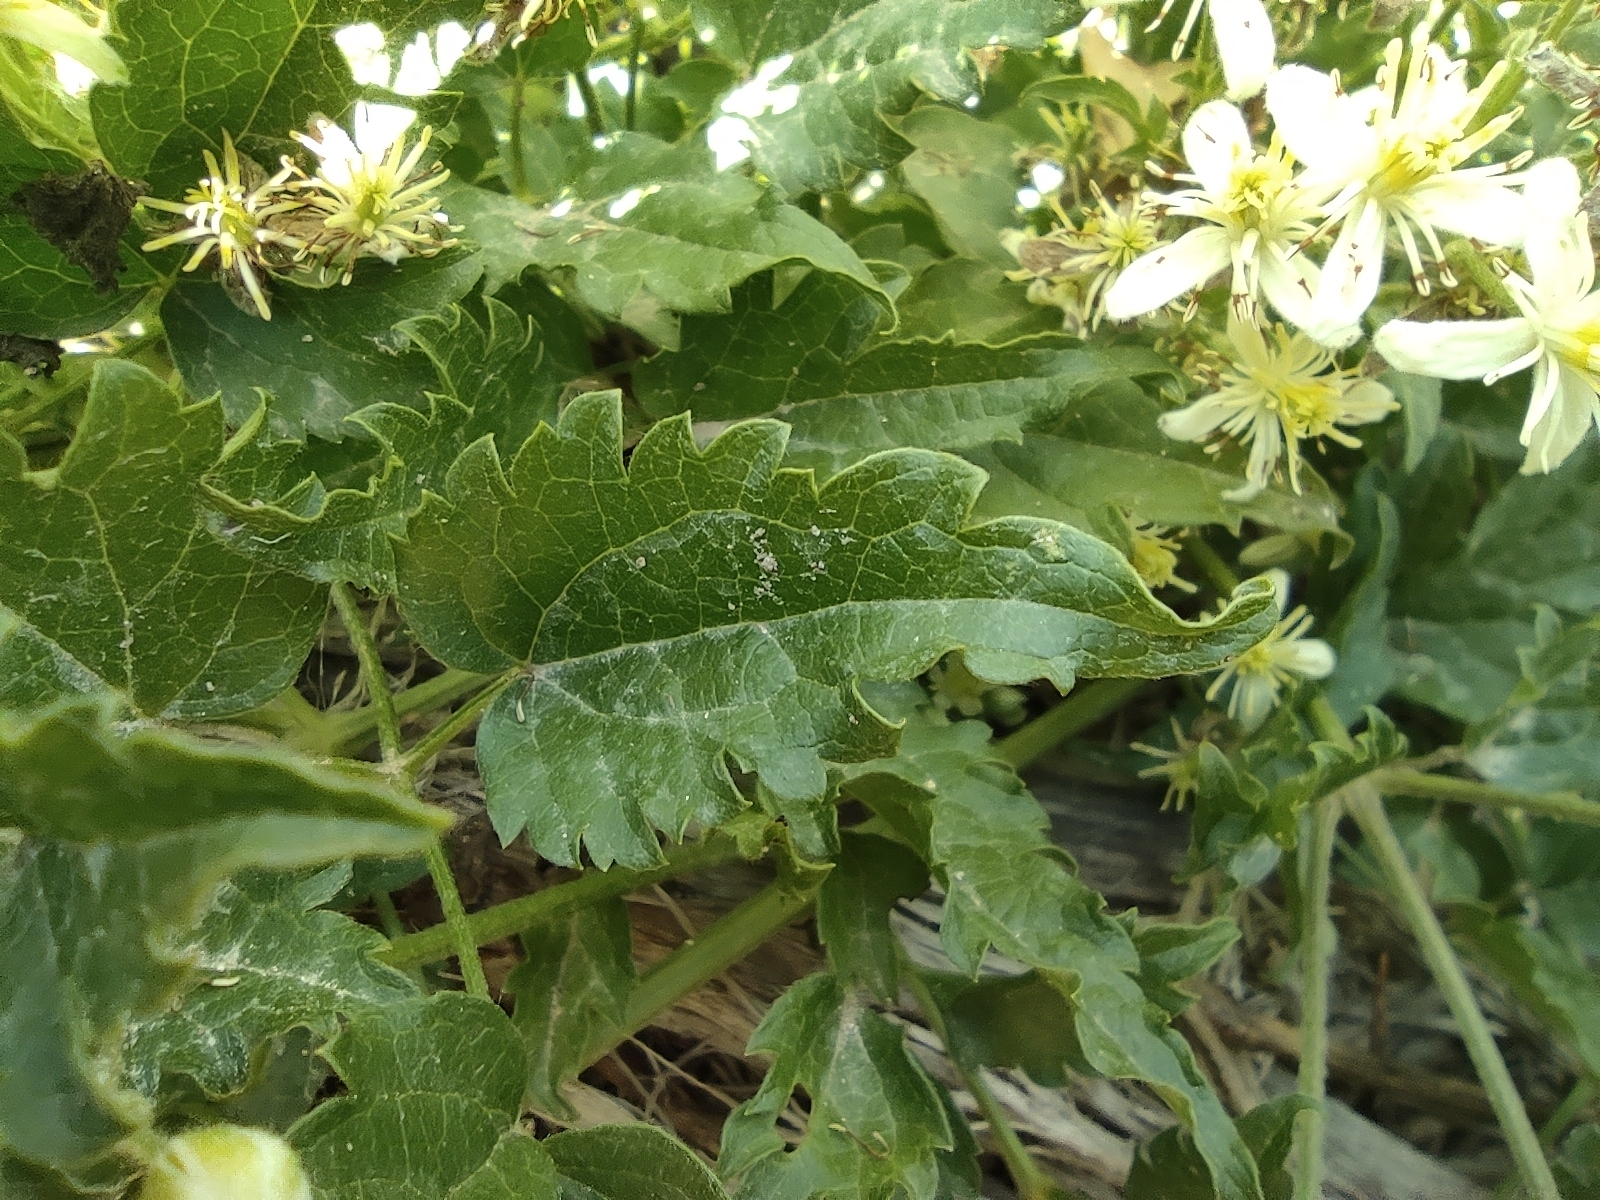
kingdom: Plantae
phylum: Tracheophyta
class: Magnoliopsida
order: Ranunculales
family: Ranunculaceae
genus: Clematis
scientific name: Clematis vitalba
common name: Evergreen clematis
